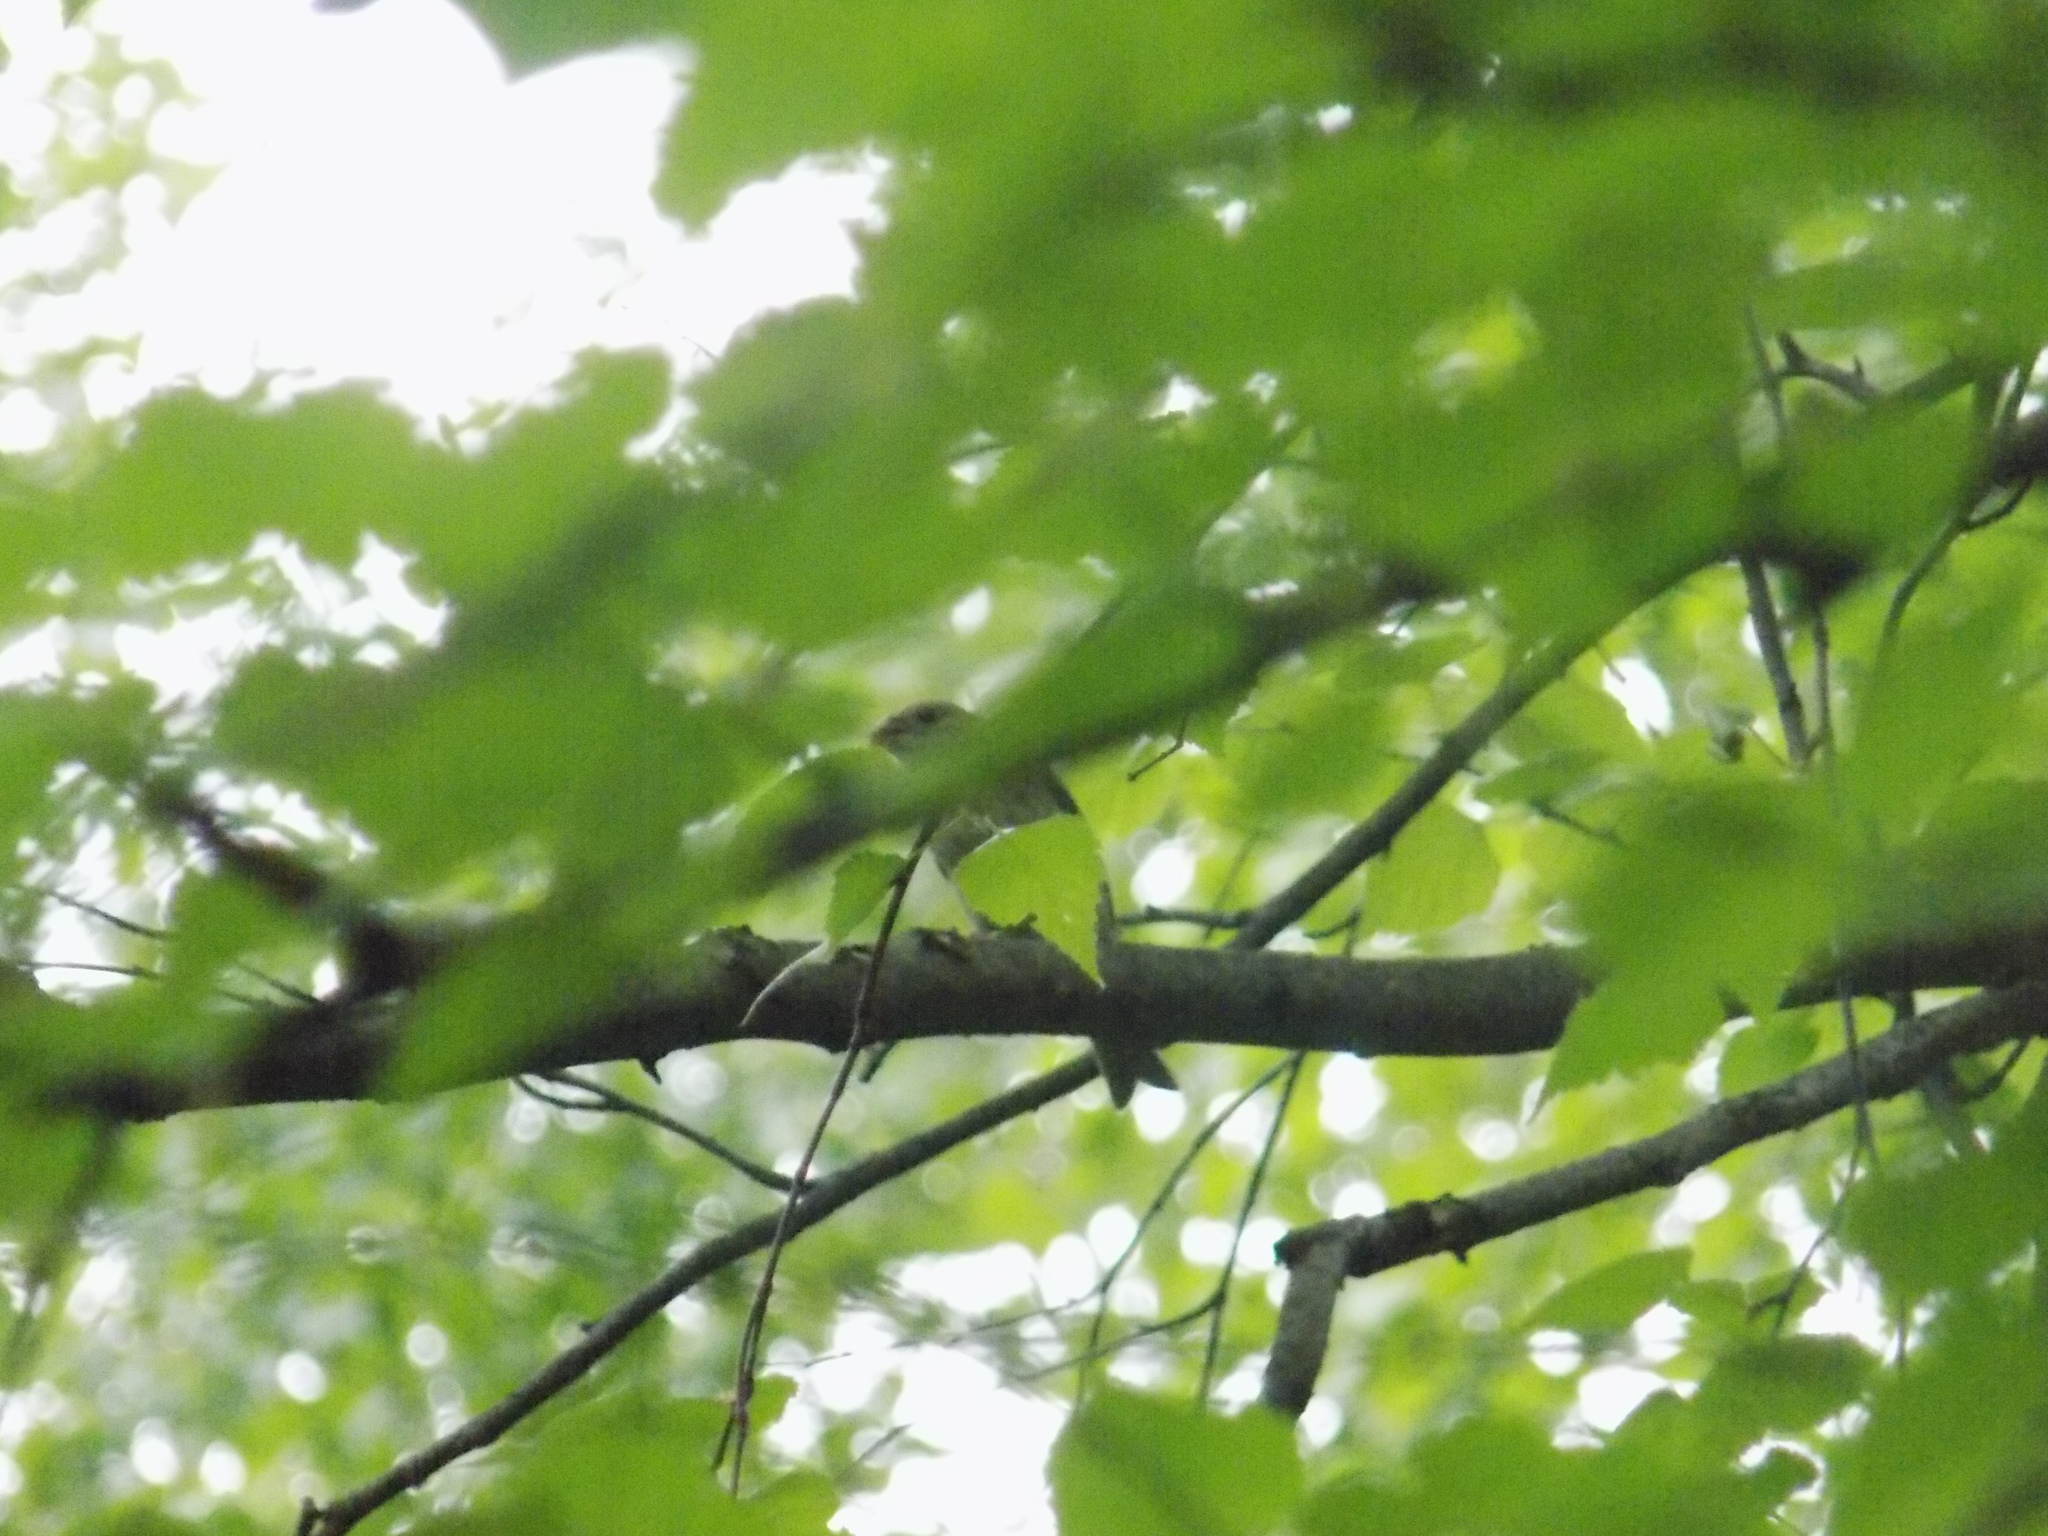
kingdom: Animalia
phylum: Chordata
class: Aves
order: Passeriformes
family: Fringillidae
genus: Carpodacus
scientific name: Carpodacus erythrinus
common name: Common rosefinch
